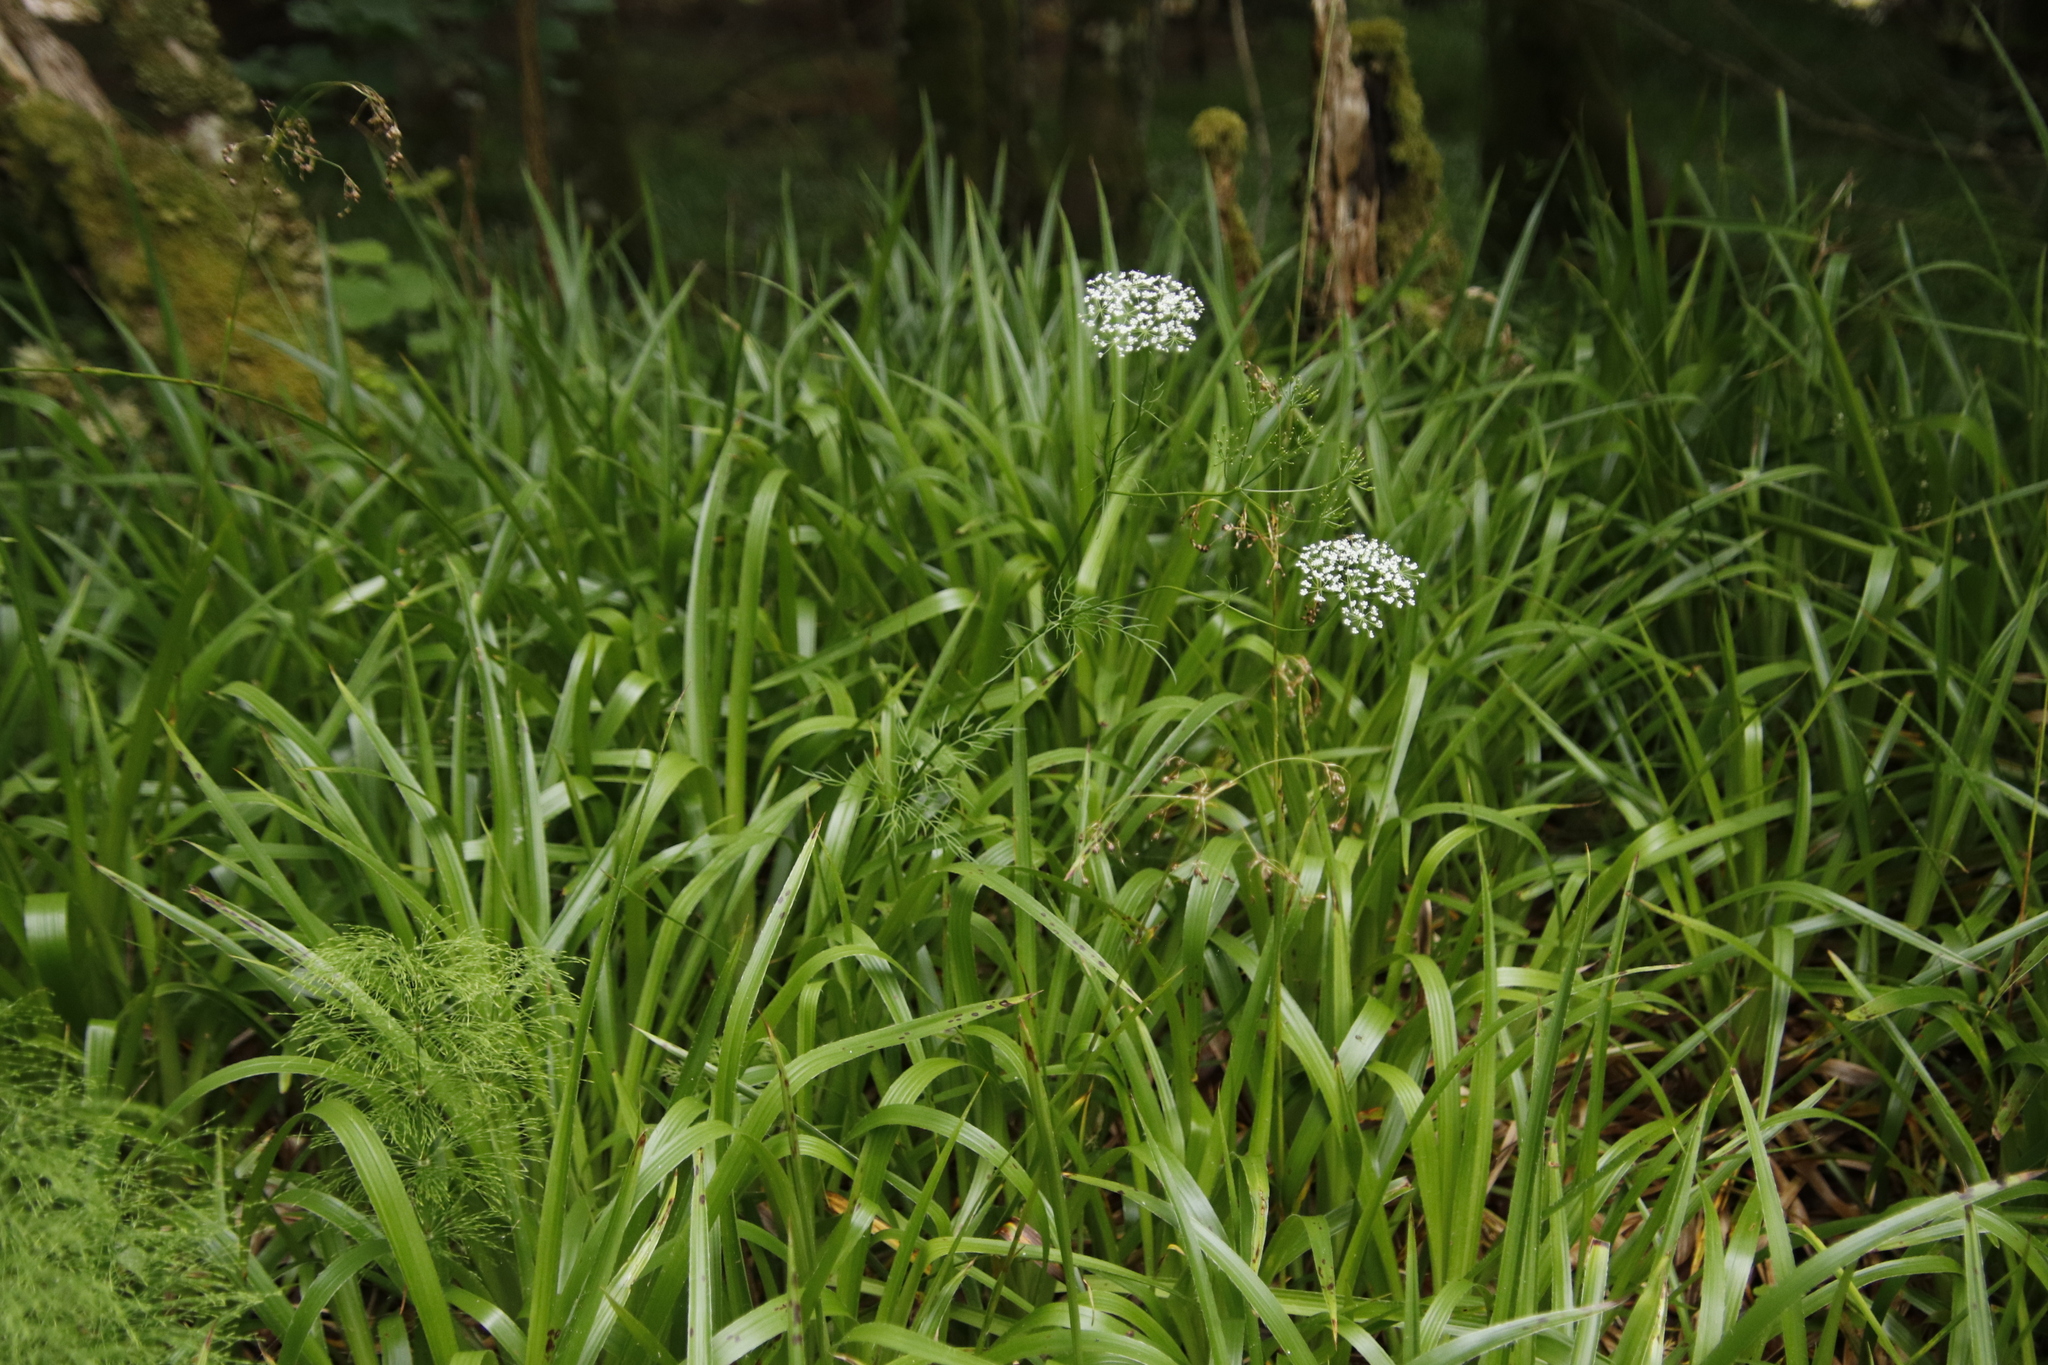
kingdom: Plantae
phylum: Tracheophyta
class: Liliopsida
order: Poales
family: Juncaceae
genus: Luzula
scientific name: Luzula sylvatica
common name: Great wood-rush
